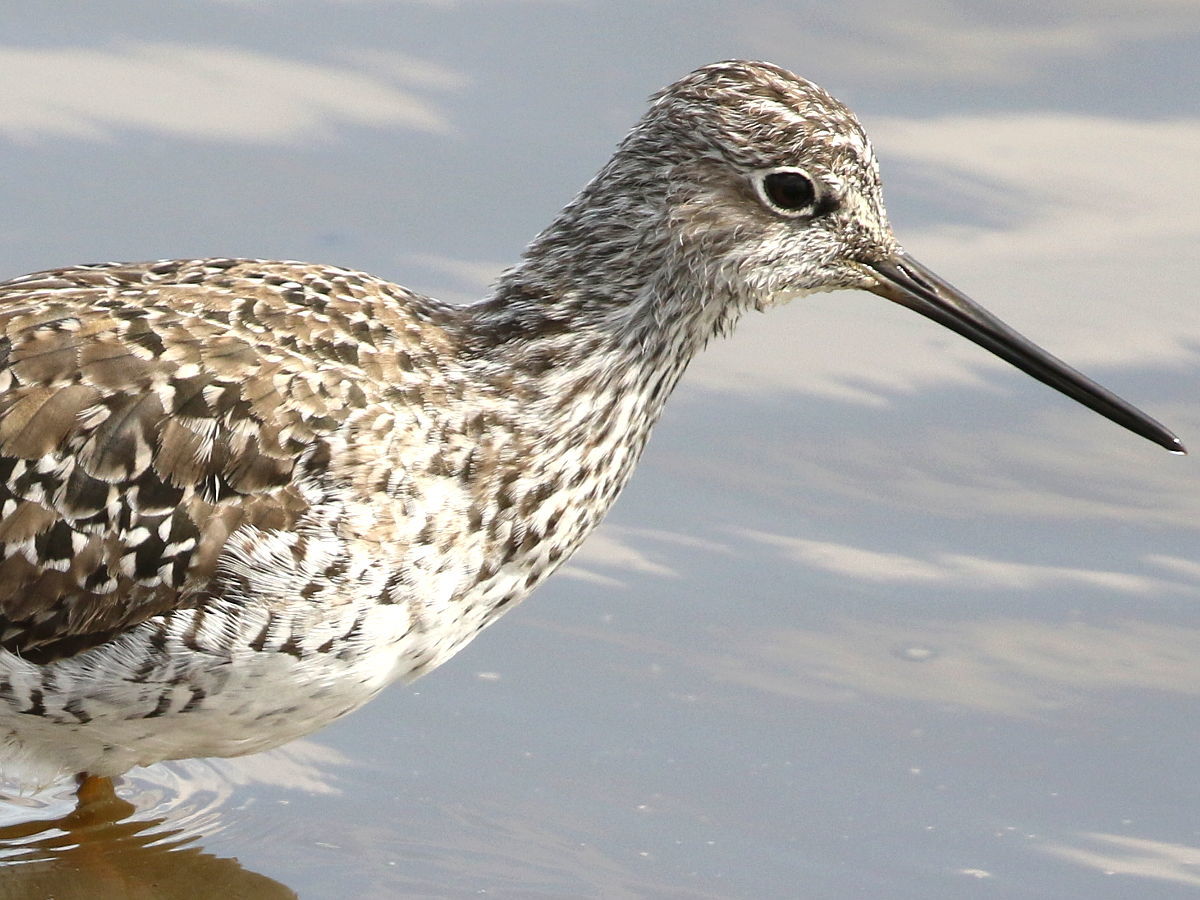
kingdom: Animalia
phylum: Chordata
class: Aves
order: Charadriiformes
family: Scolopacidae
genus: Tringa
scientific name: Tringa melanoleuca
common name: Greater yellowlegs
